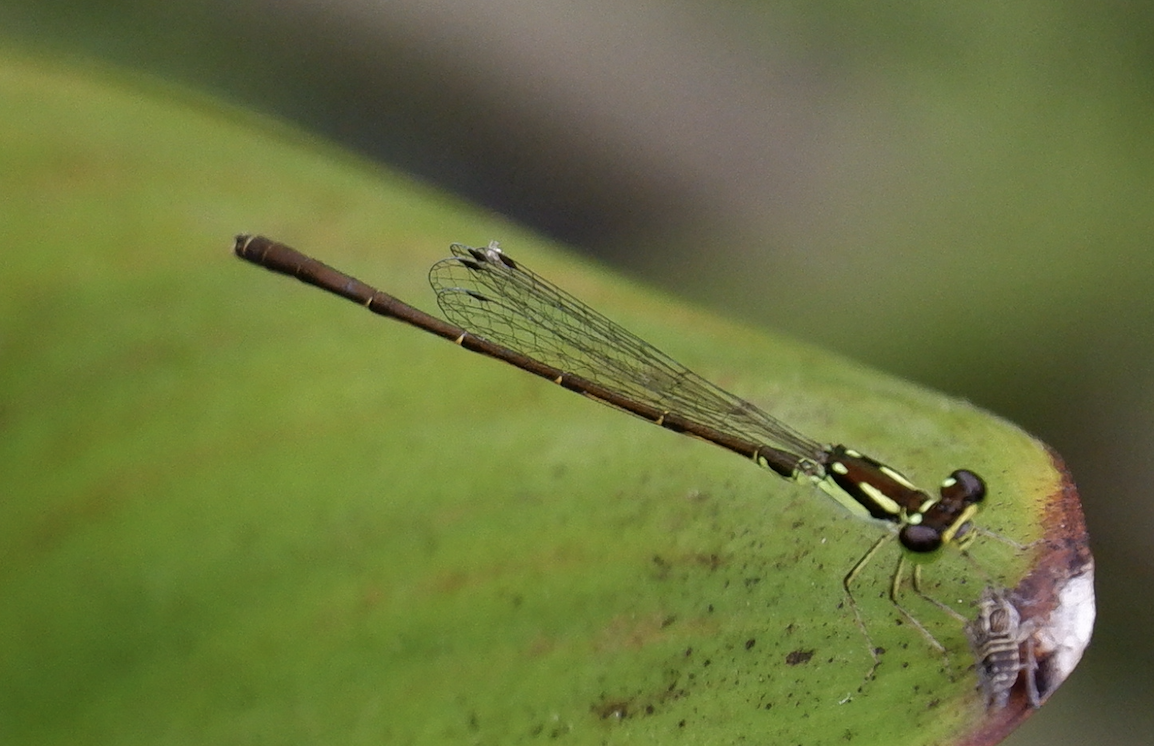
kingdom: Animalia
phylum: Arthropoda
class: Insecta
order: Odonata
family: Coenagrionidae
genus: Ischnura
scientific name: Ischnura posita
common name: Fragile forktail
